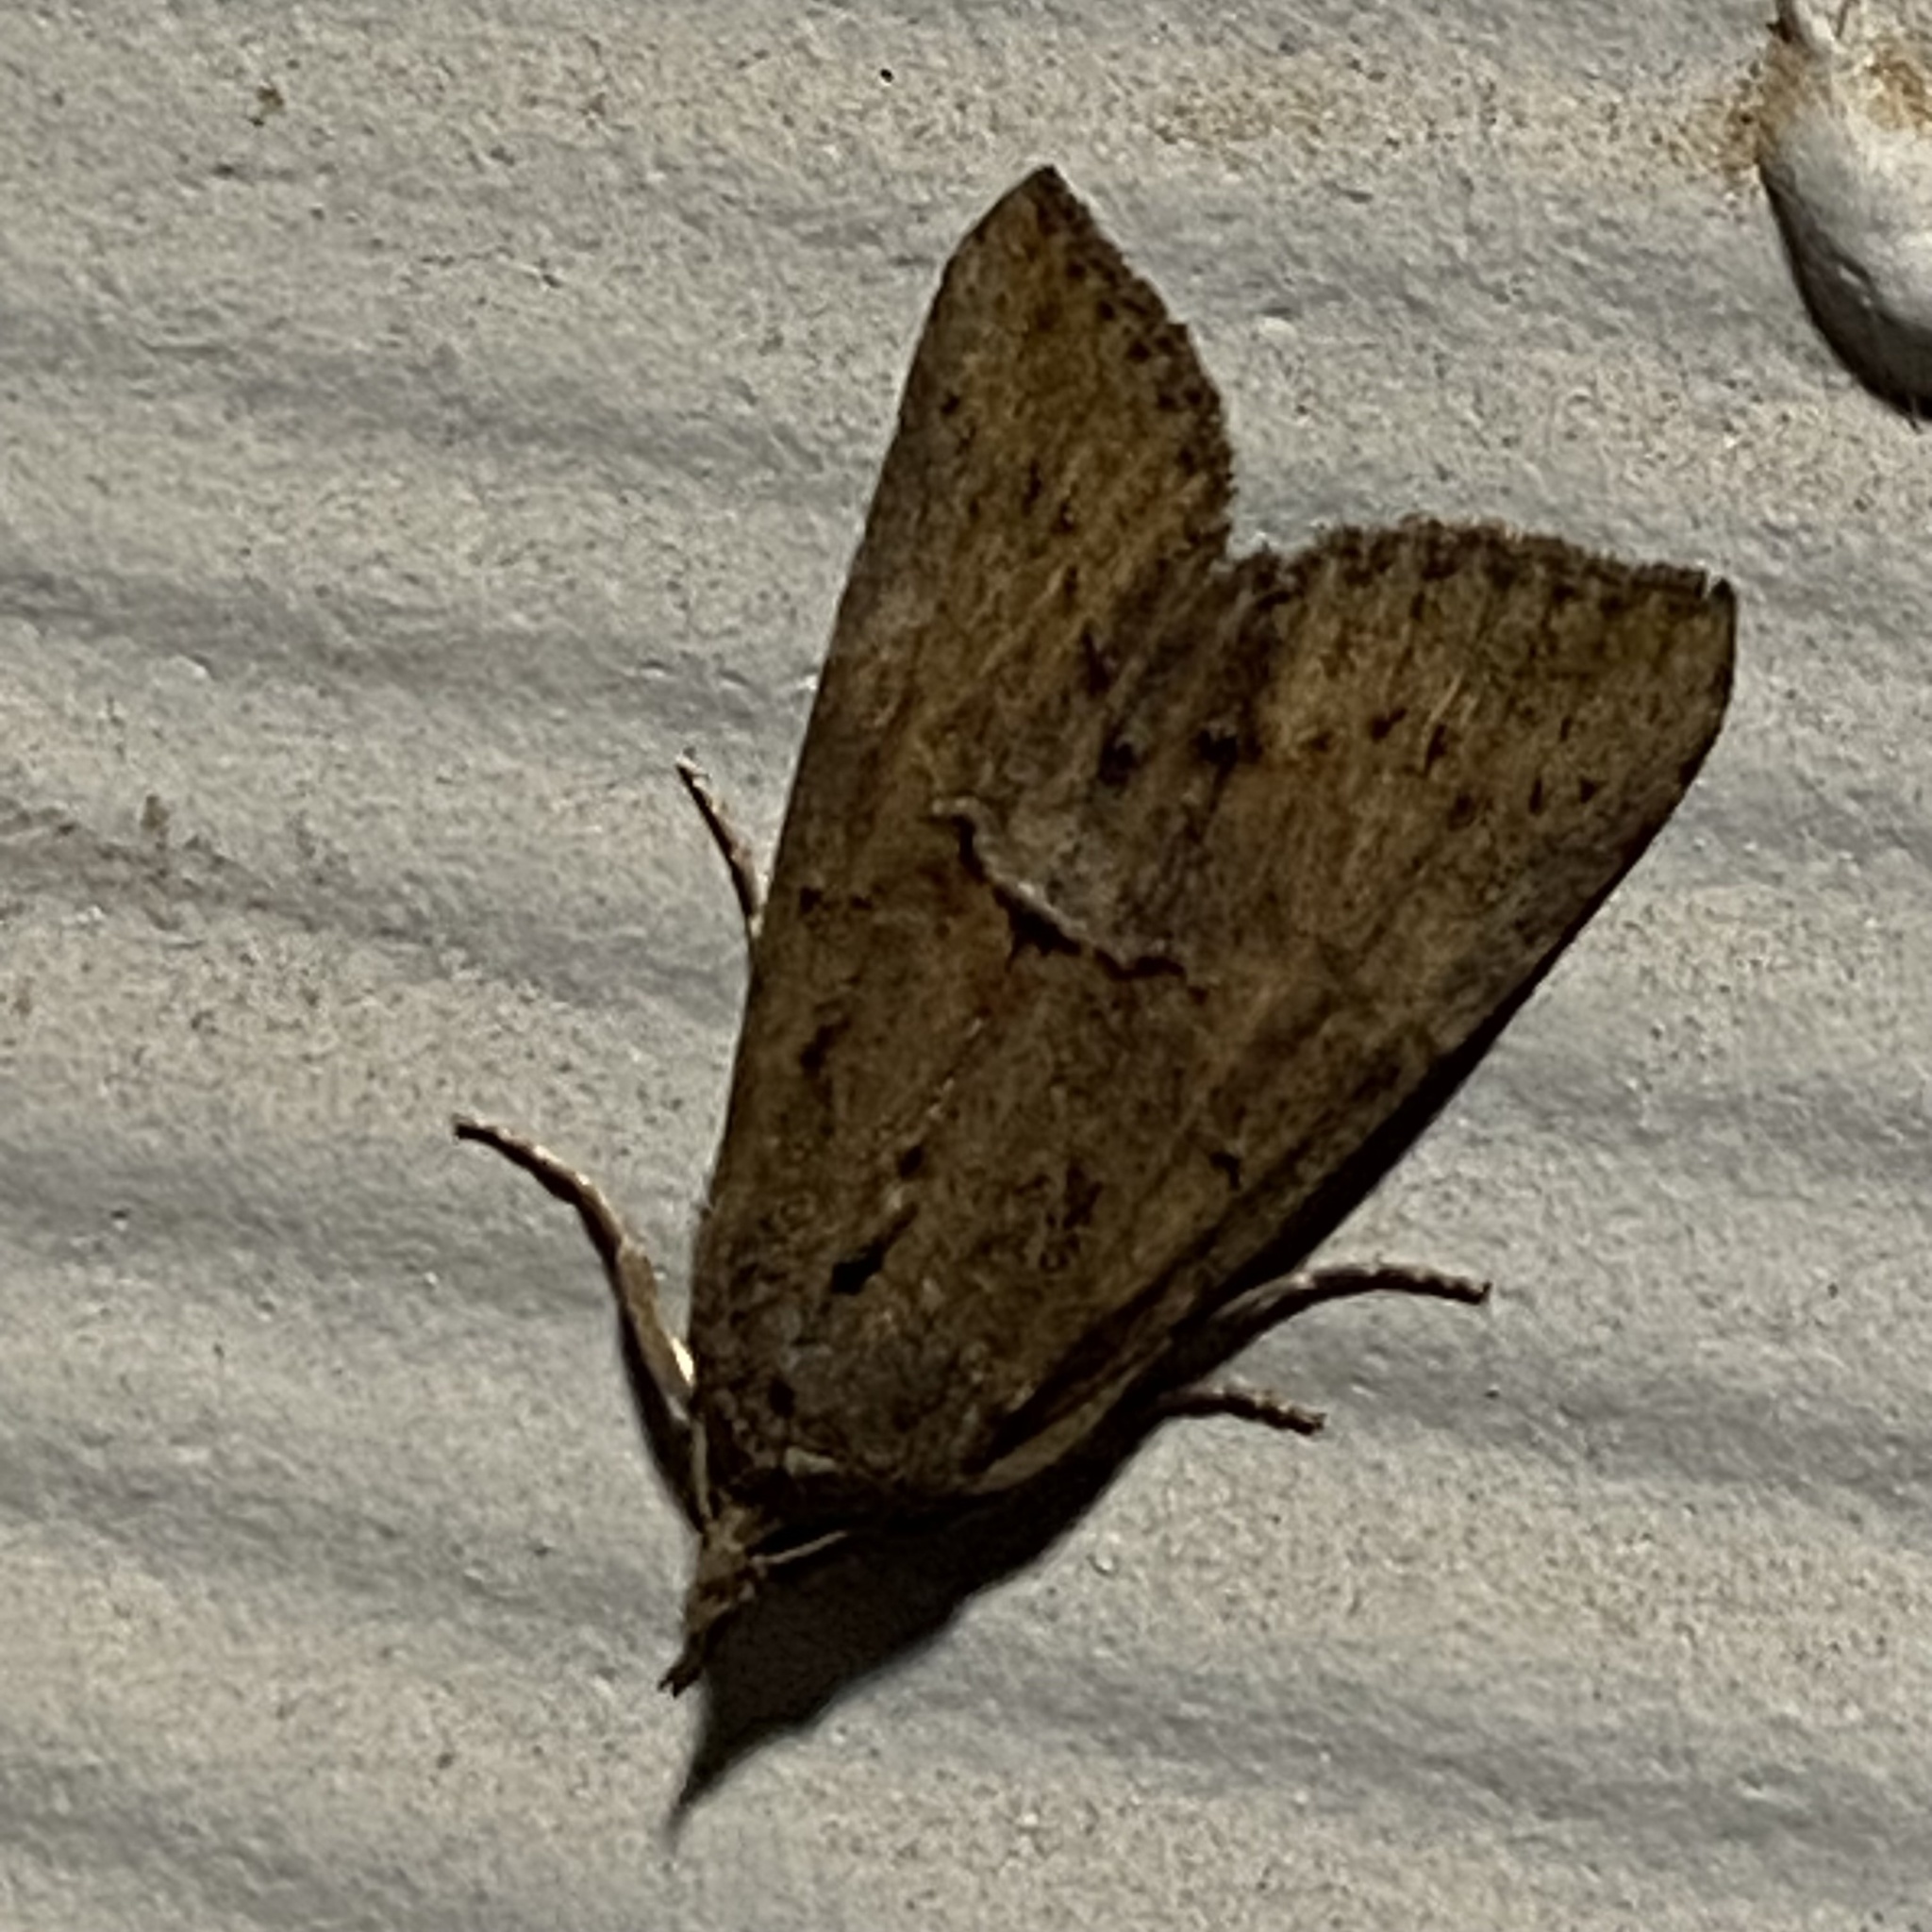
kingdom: Animalia
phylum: Arthropoda
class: Insecta
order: Lepidoptera
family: Erebidae
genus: Hypena
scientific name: Hypena scabra
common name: Green cloverworm
